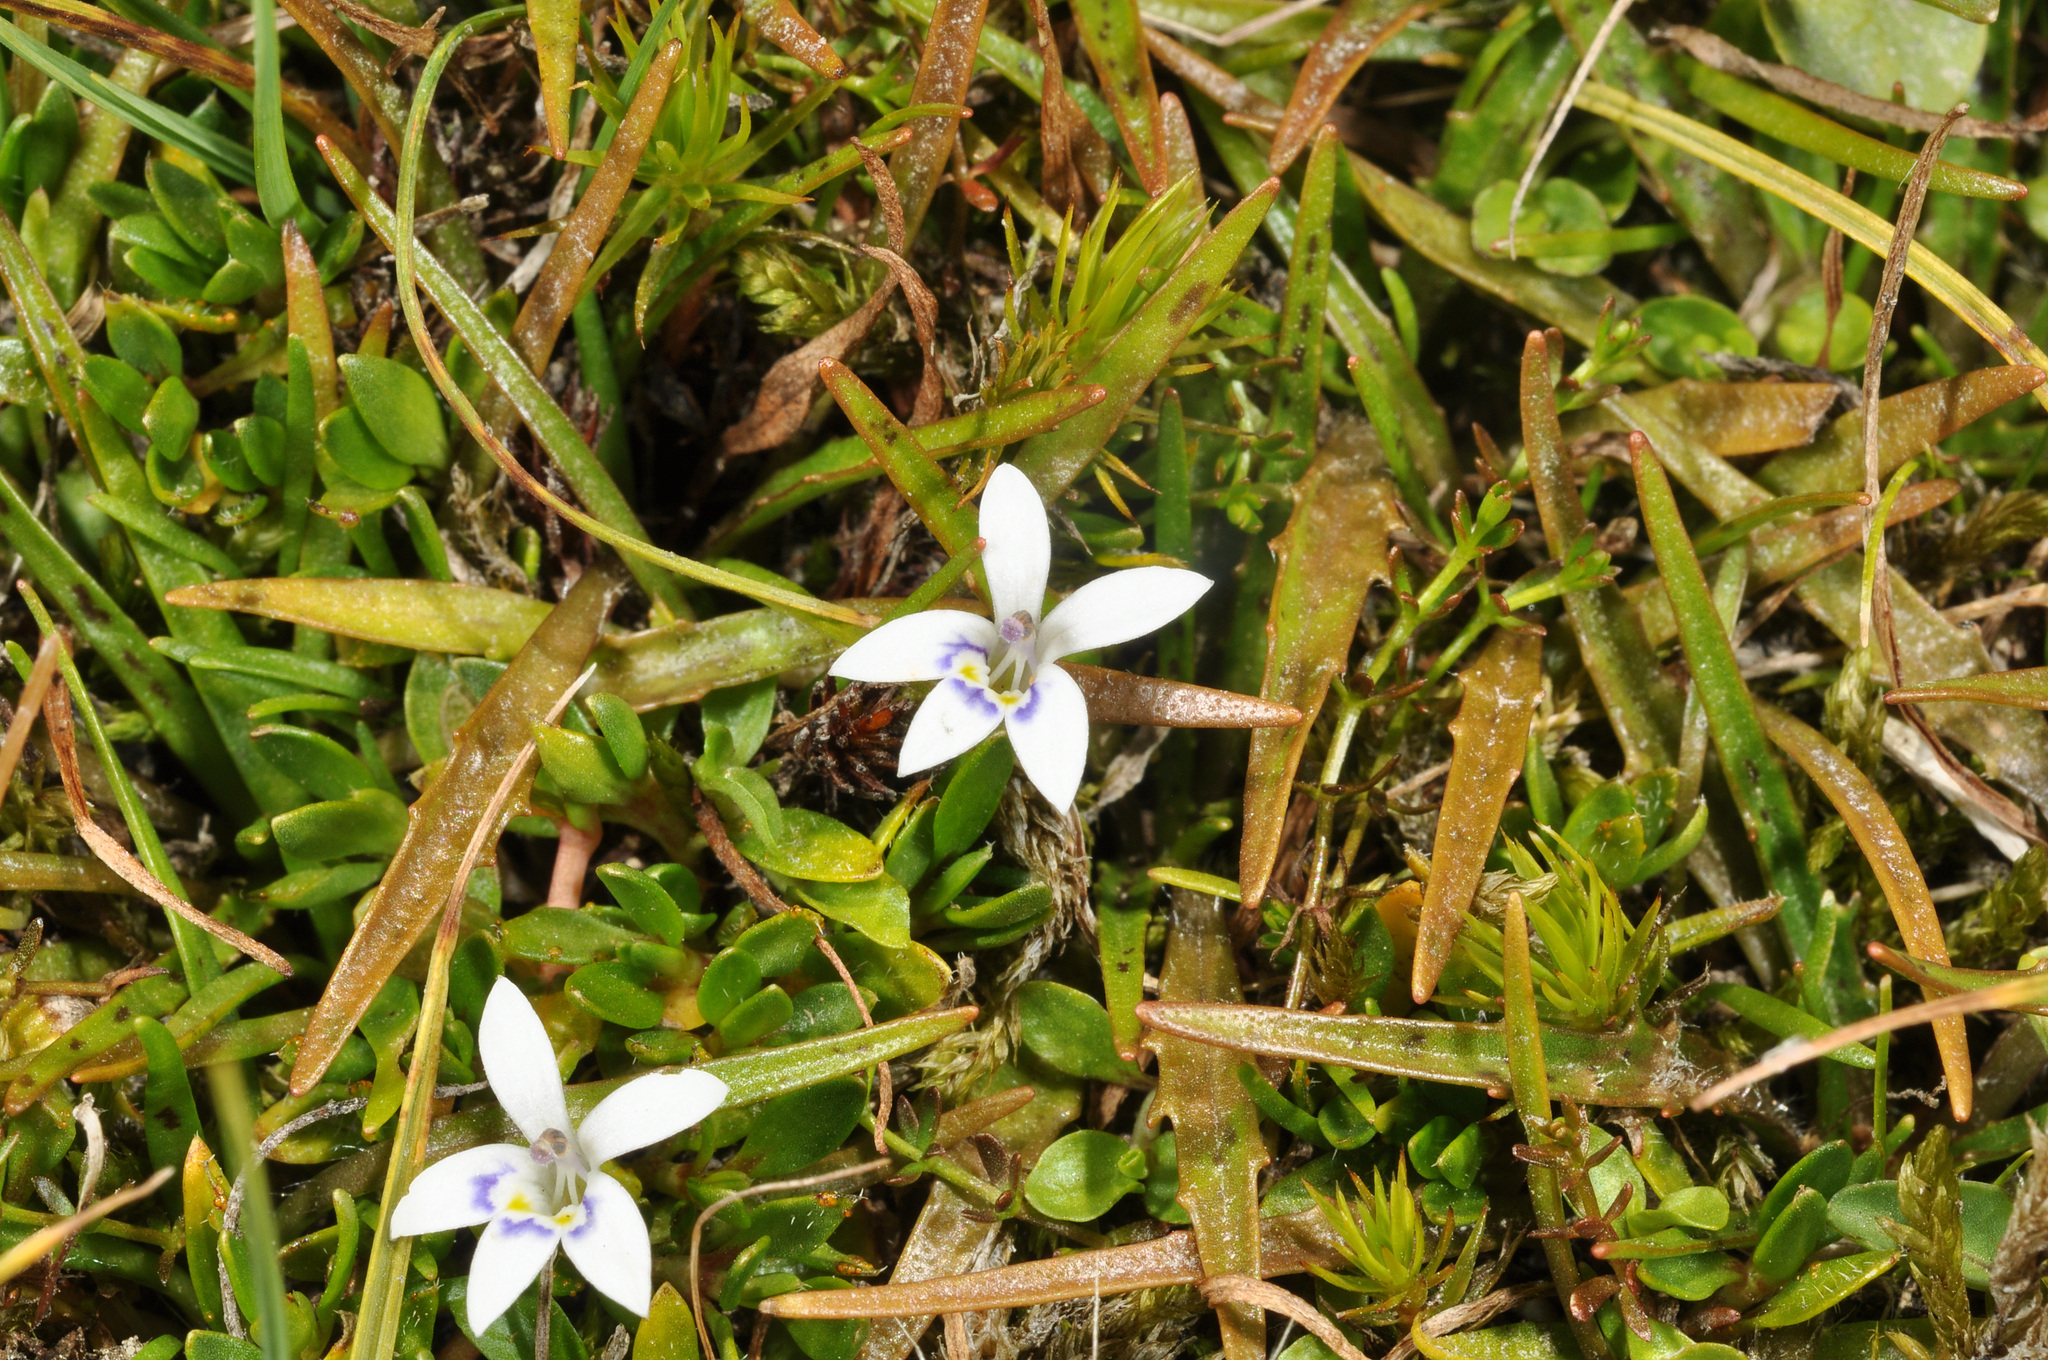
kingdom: Plantae
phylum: Tracheophyta
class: Magnoliopsida
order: Asterales
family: Campanulaceae
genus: Isotoma
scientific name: Isotoma rivalis
